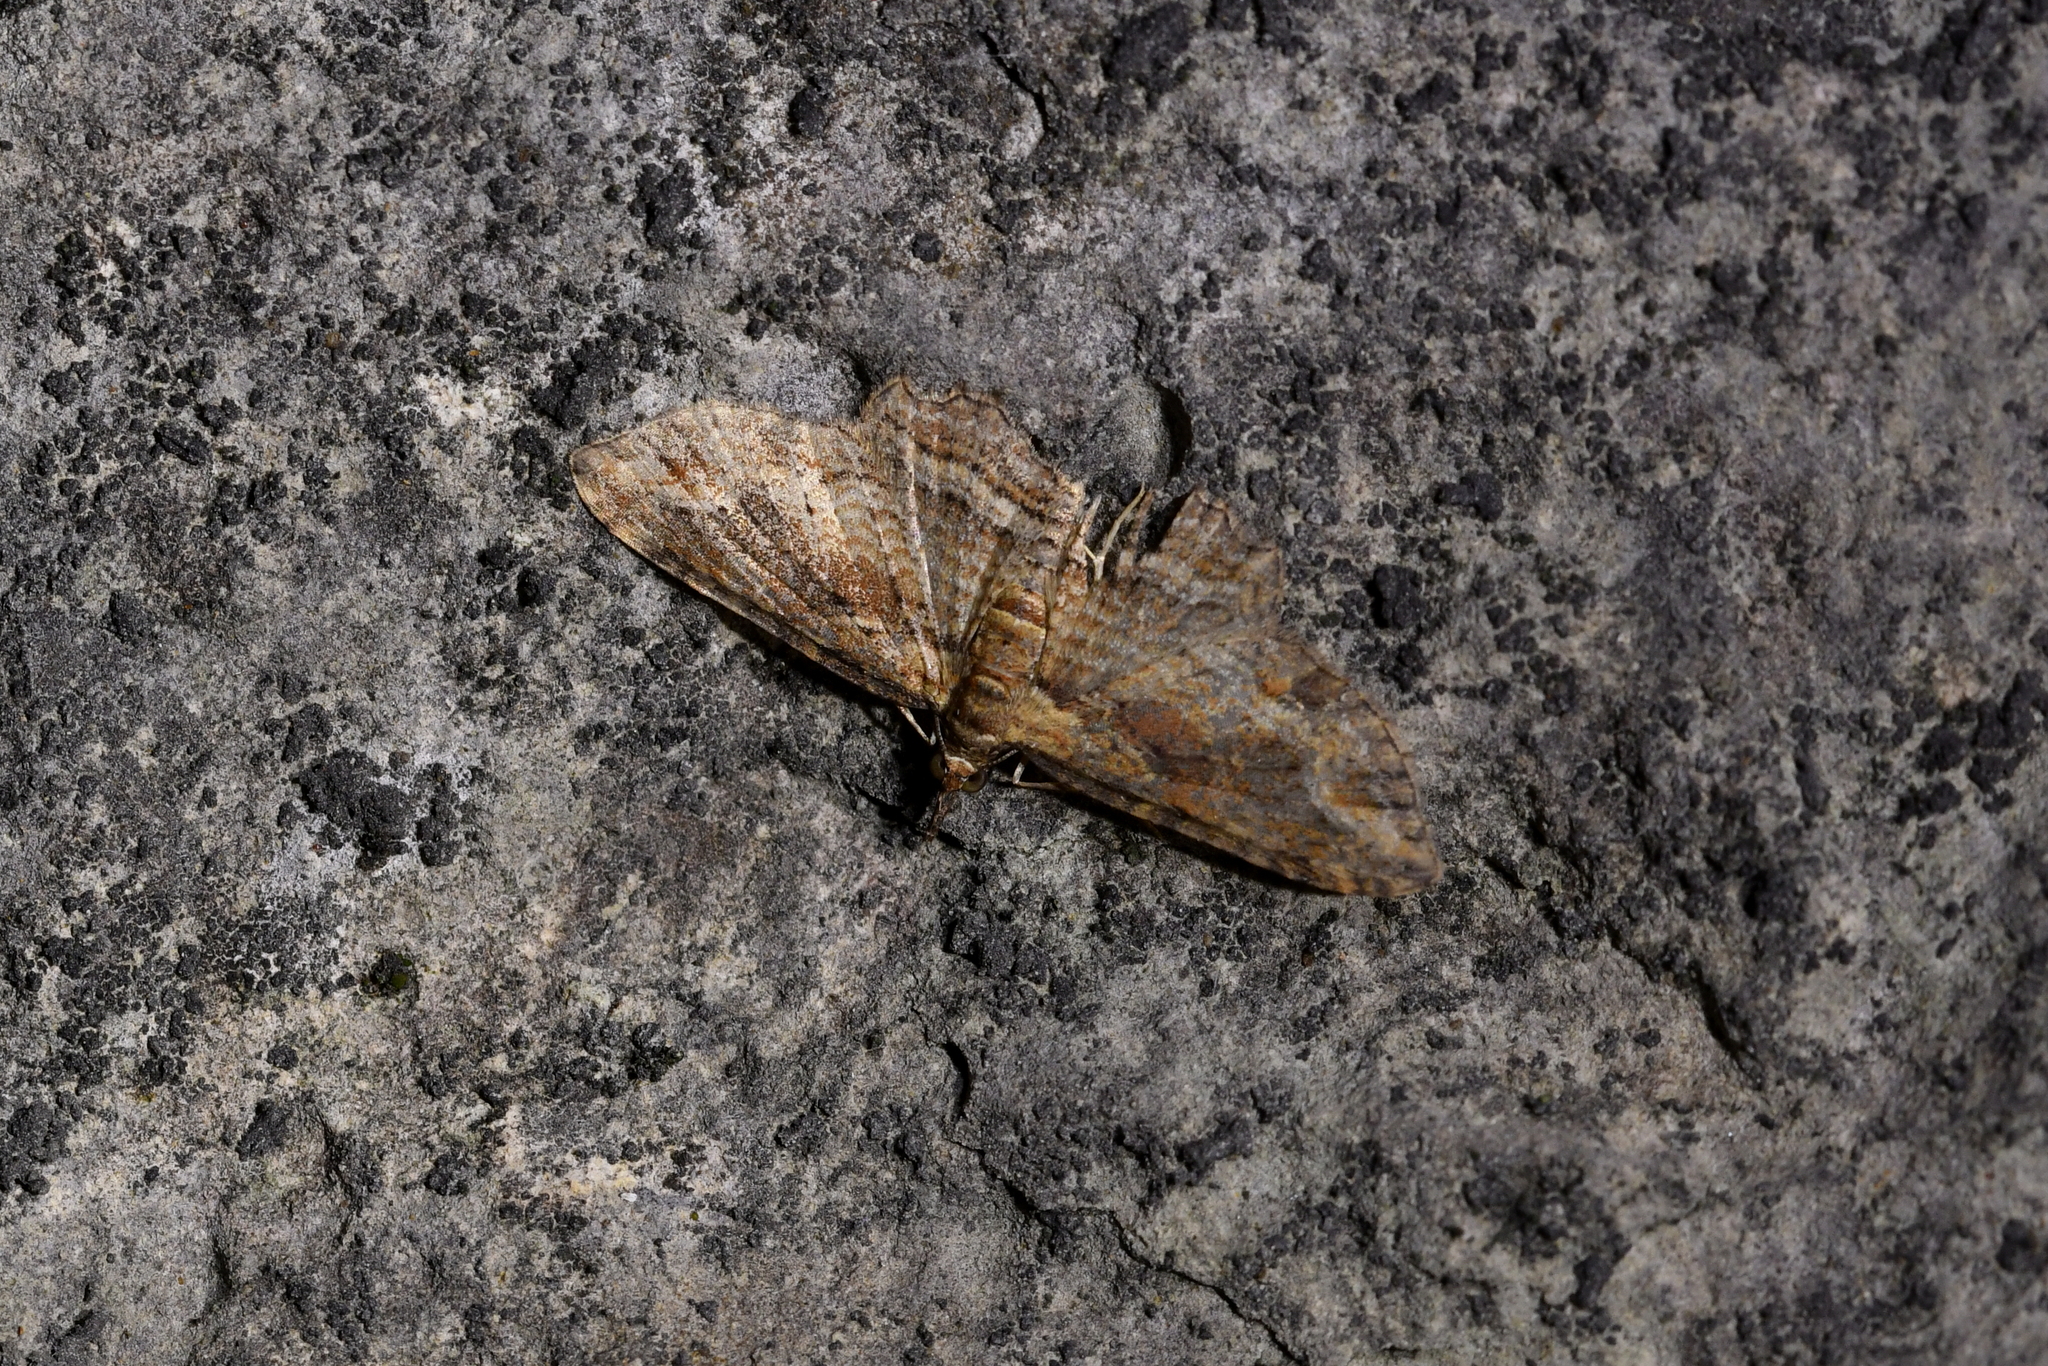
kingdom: Animalia
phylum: Arthropoda
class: Insecta
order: Lepidoptera
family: Geometridae
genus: Chloroclystis
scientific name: Chloroclystis filata
